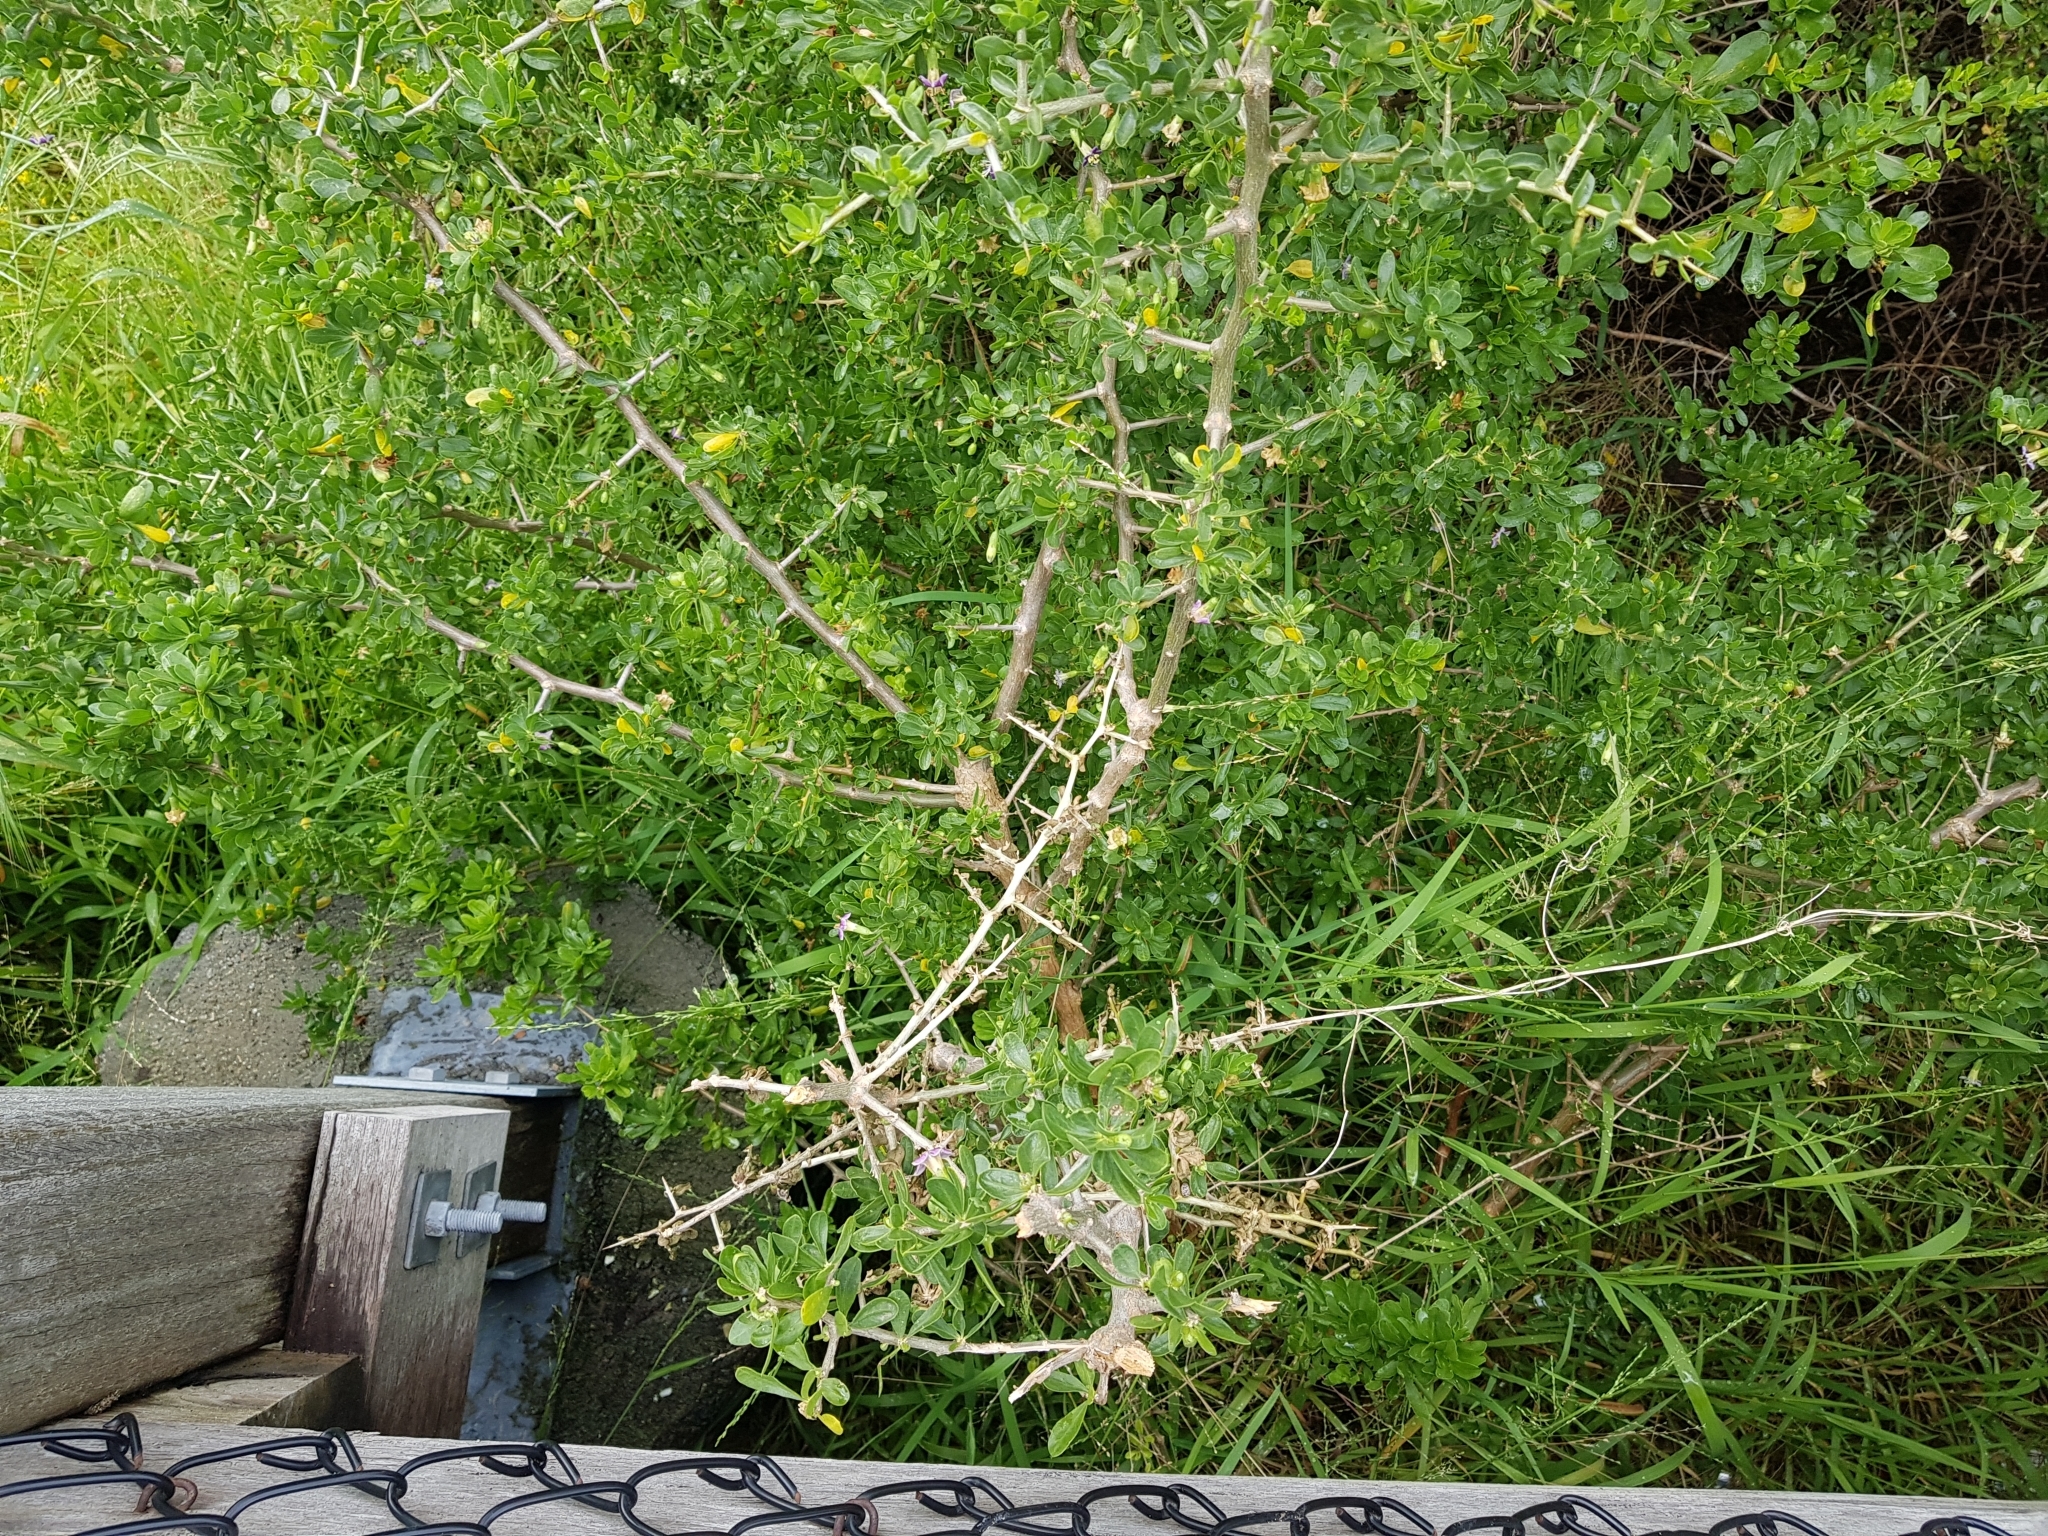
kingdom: Plantae
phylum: Tracheophyta
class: Magnoliopsida
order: Solanales
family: Solanaceae
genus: Lycium
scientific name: Lycium ferocissimum
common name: African boxthorn
